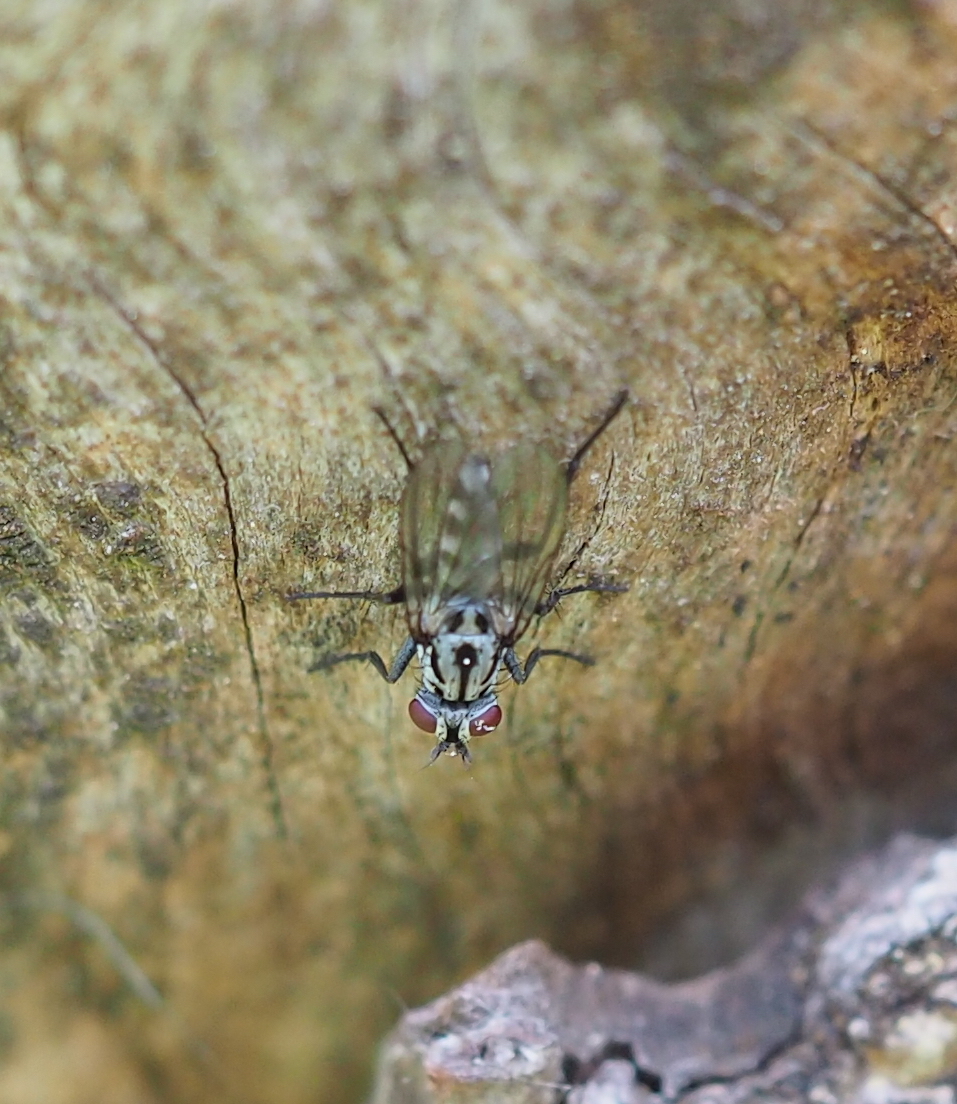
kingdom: Animalia
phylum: Arthropoda
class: Insecta
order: Diptera
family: Anthomyiidae
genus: Eustalomyia
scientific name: Eustalomyia hilaris
